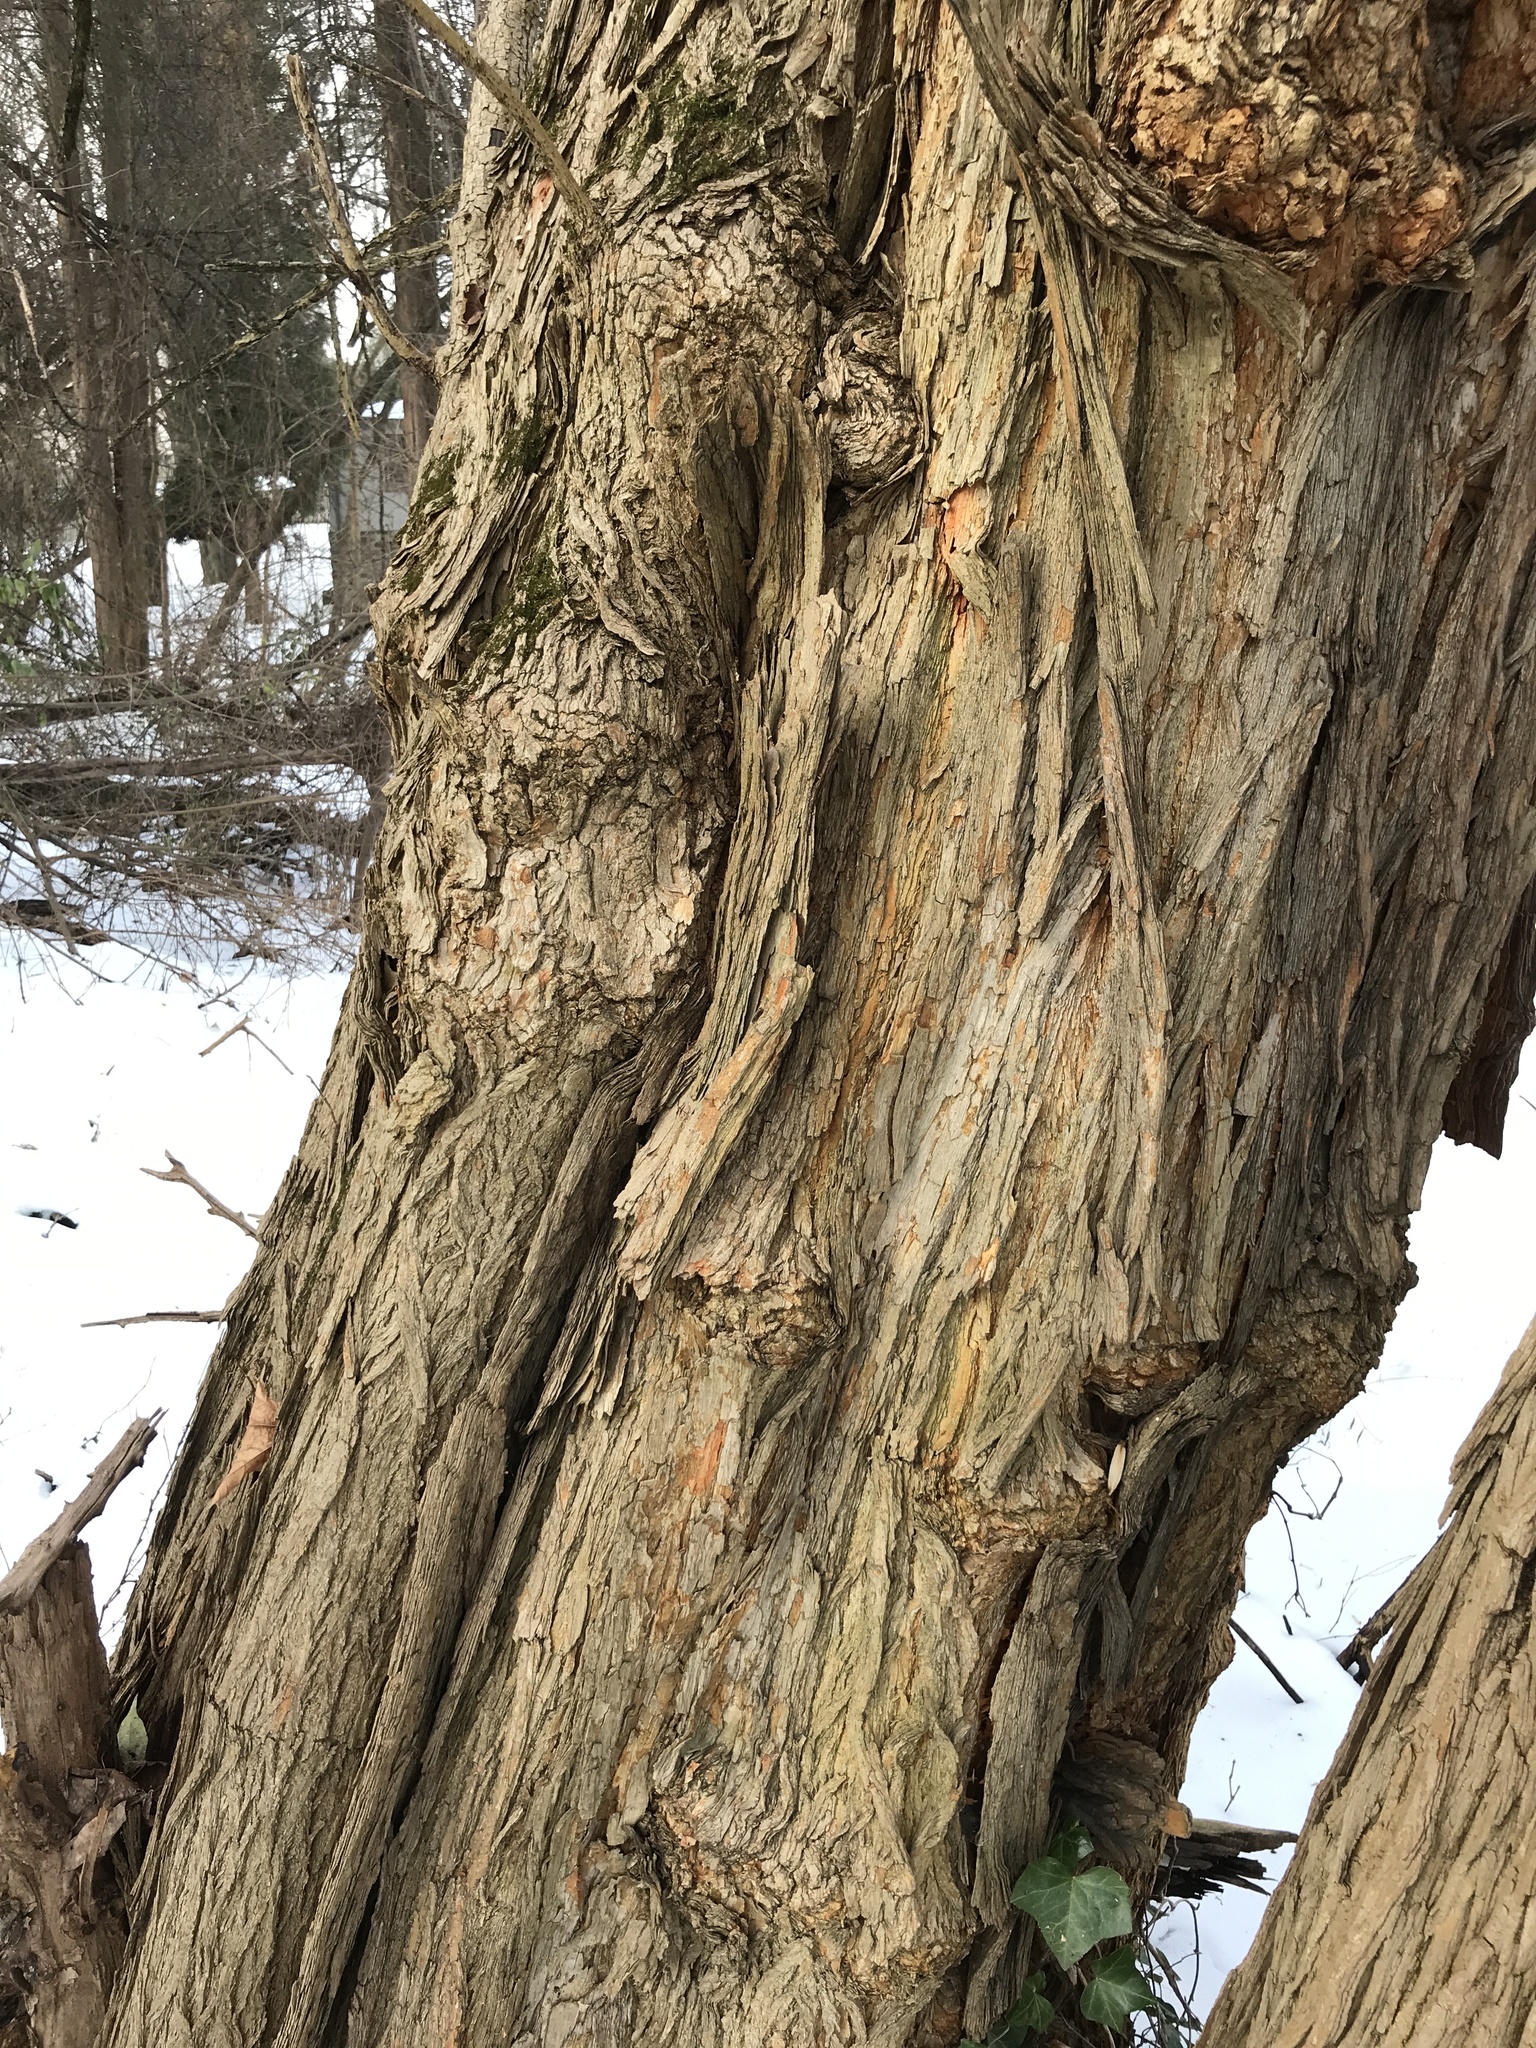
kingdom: Plantae
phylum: Tracheophyta
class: Magnoliopsida
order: Rosales
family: Moraceae
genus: Maclura
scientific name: Maclura pomifera
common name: Osage-orange
